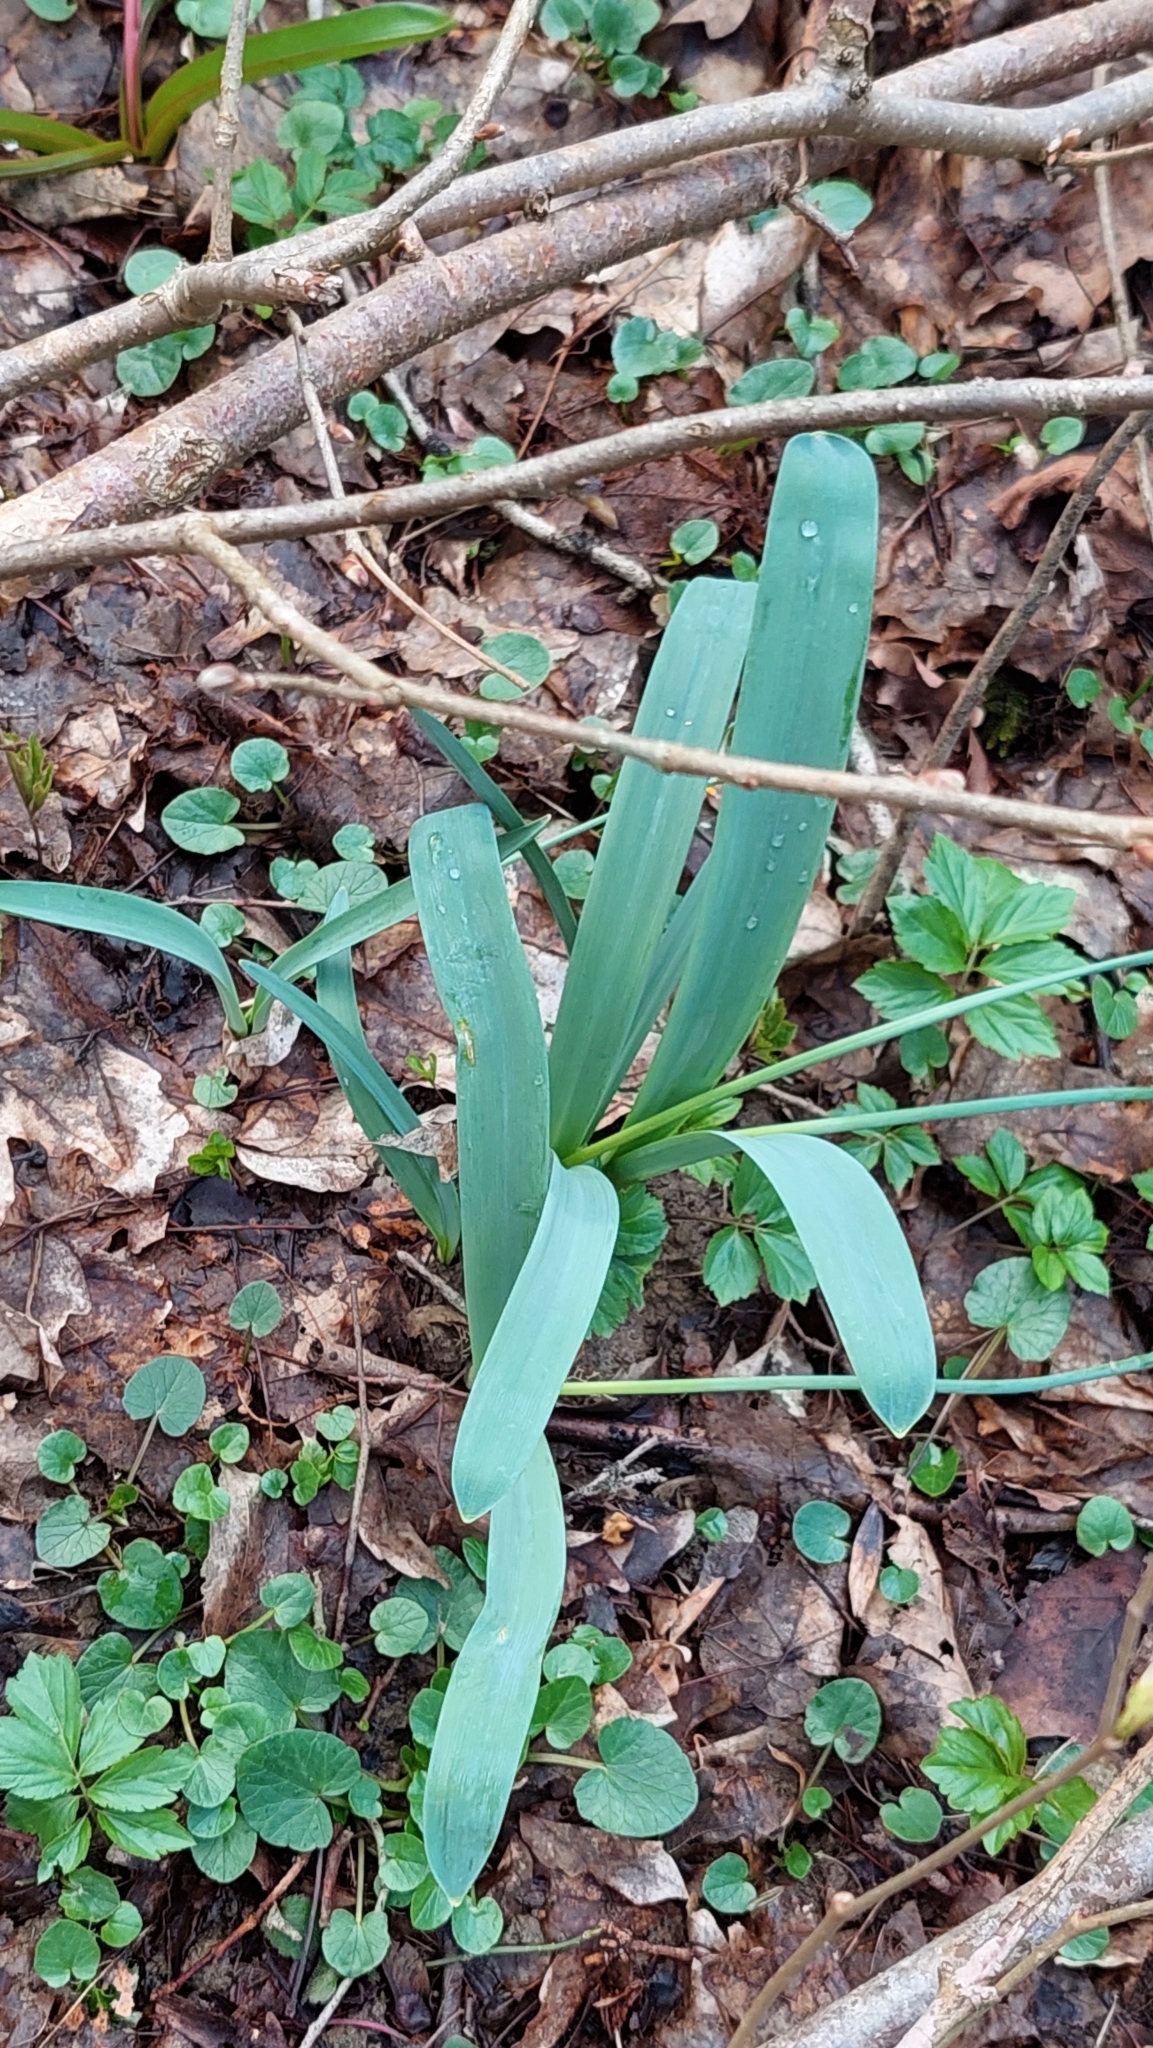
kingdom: Plantae
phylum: Tracheophyta
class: Liliopsida
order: Asparagales
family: Amaryllidaceae
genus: Galanthus
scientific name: Galanthus alpinus
